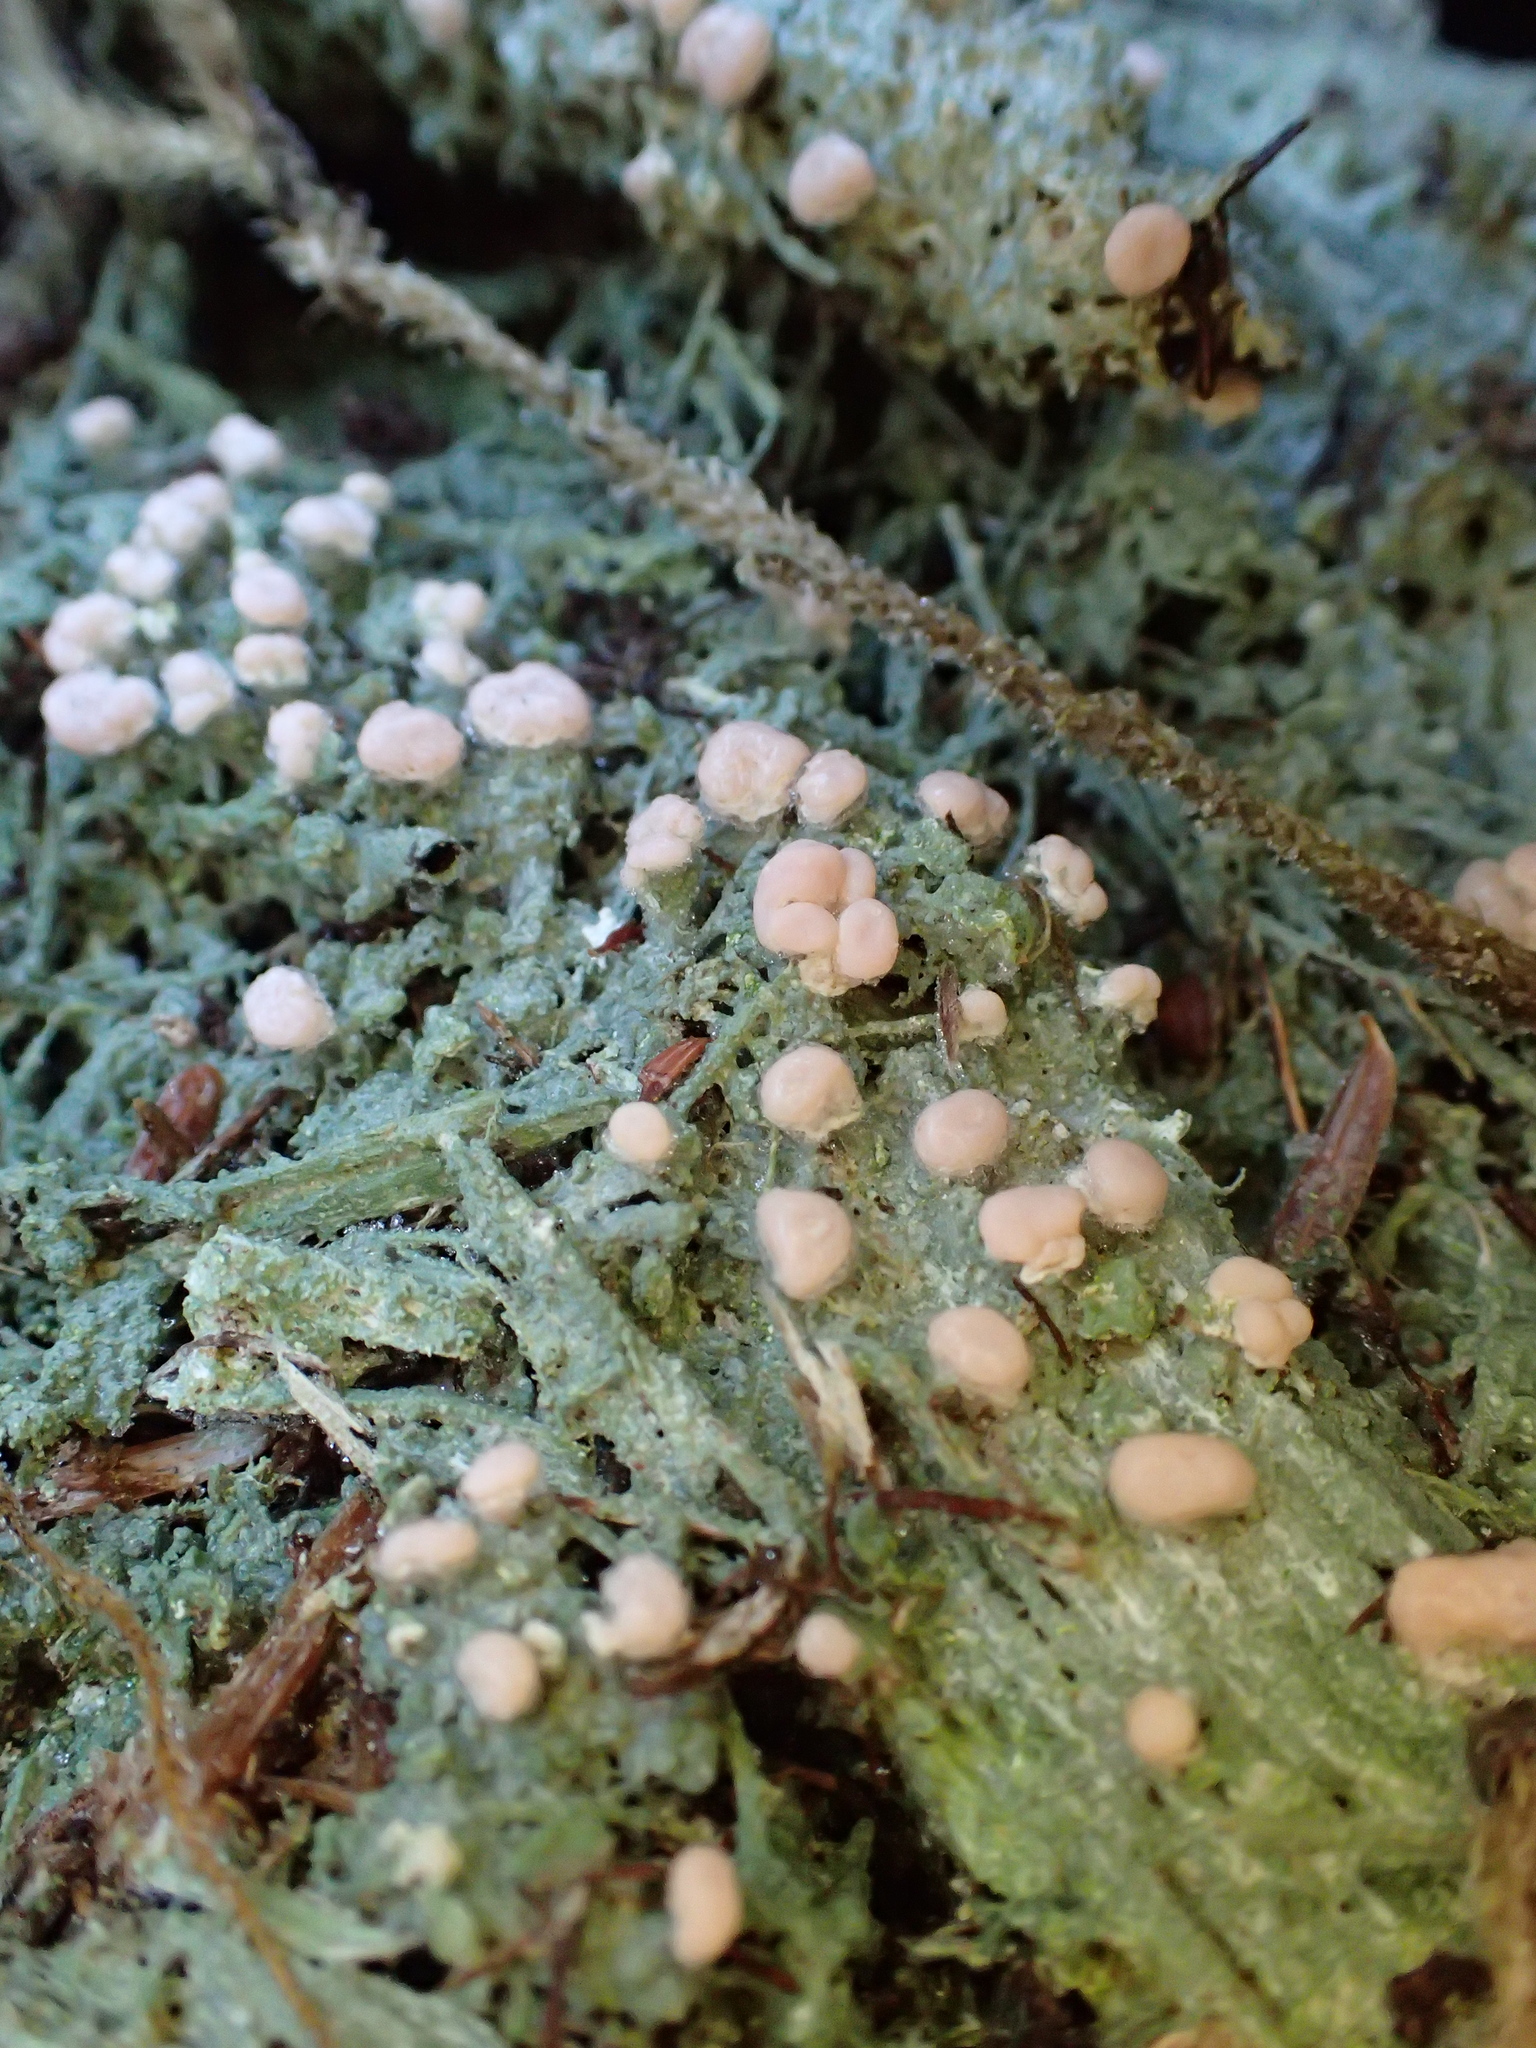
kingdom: Fungi
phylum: Ascomycota
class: Lecanoromycetes
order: Pertusariales
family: Icmadophilaceae
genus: Icmadophila
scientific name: Icmadophila ericetorum
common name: Candy lichen
